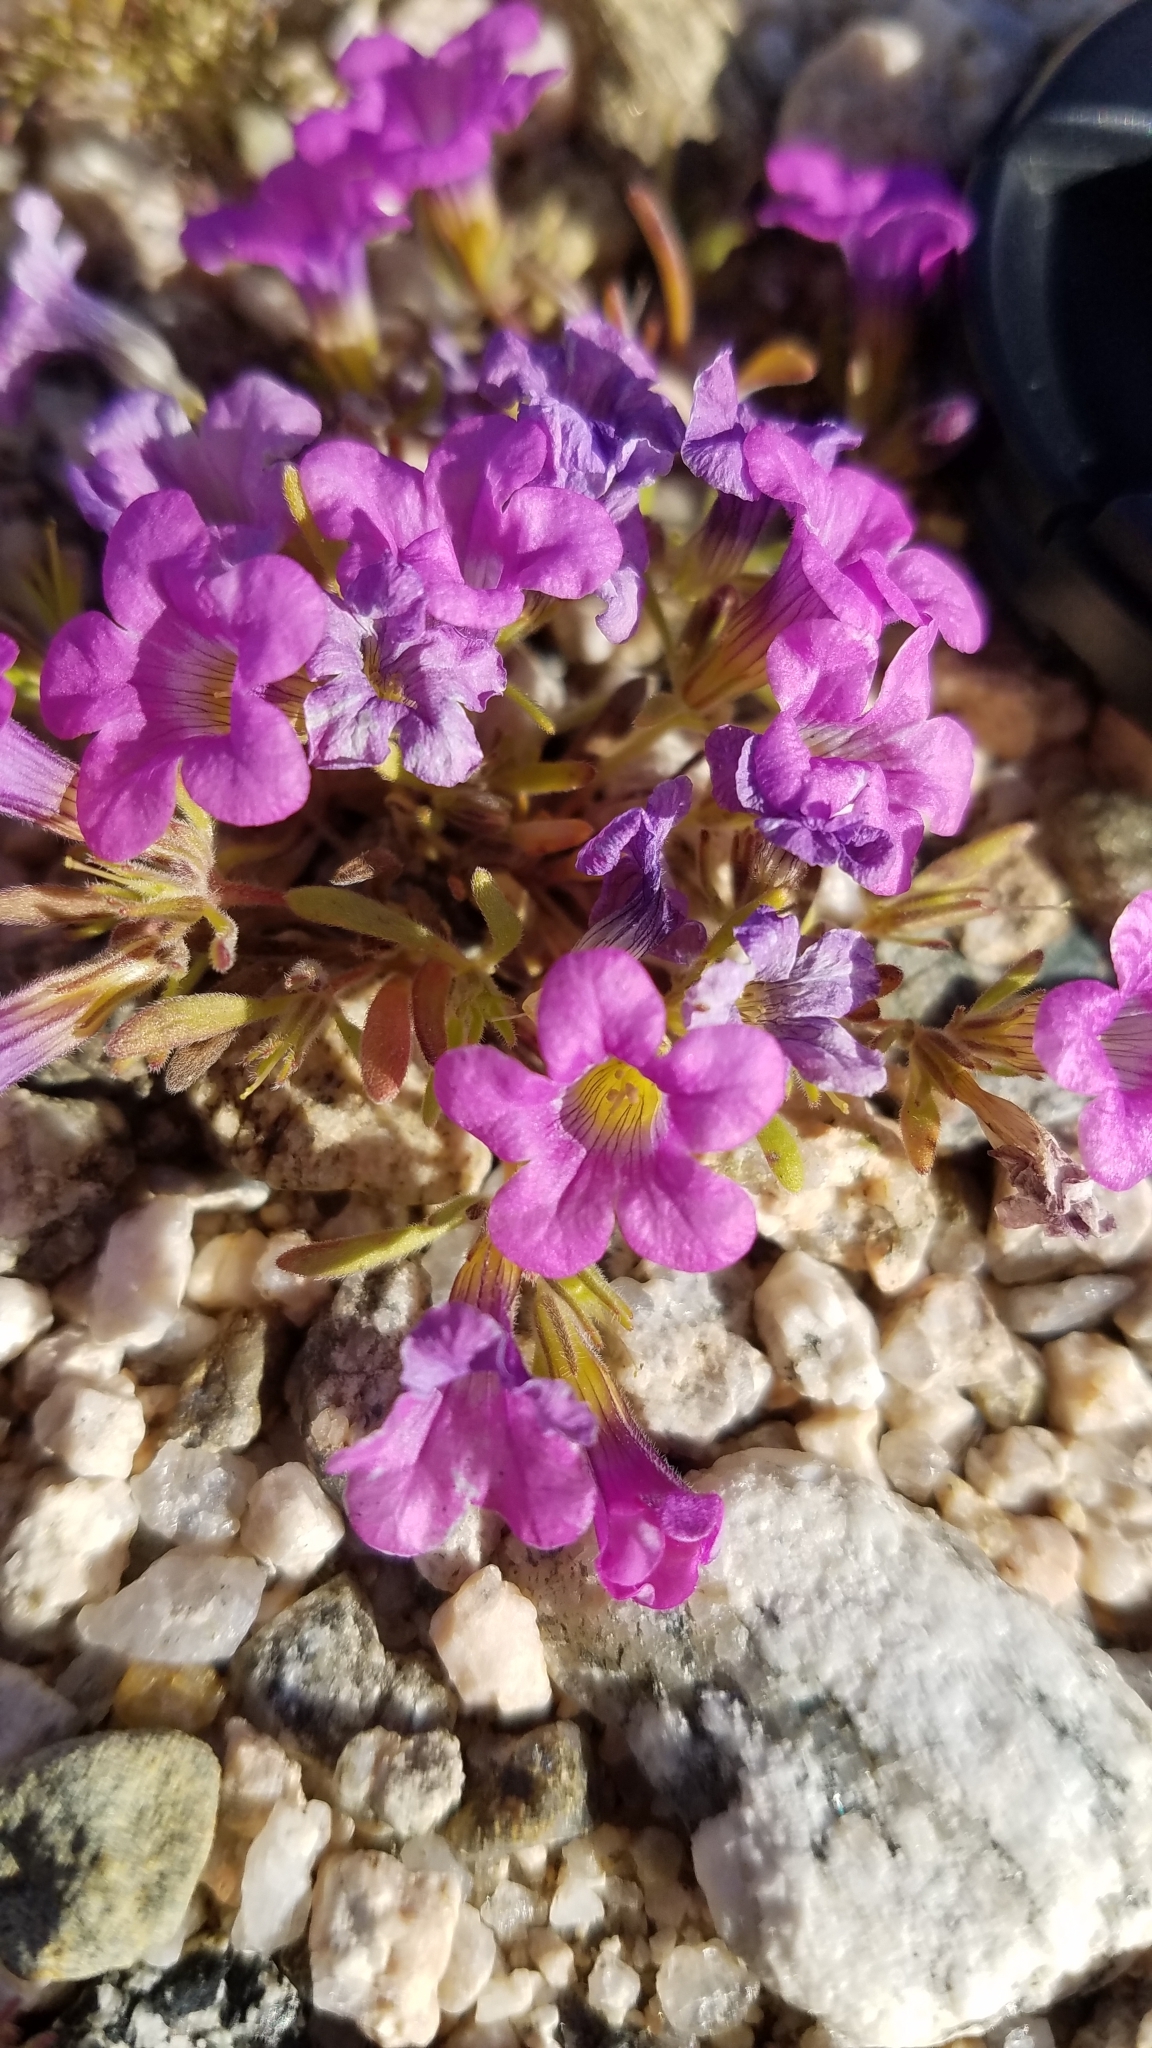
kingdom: Plantae
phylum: Tracheophyta
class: Magnoliopsida
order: Boraginales
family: Namaceae
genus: Nama
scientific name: Nama demissa
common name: Leafy nama
